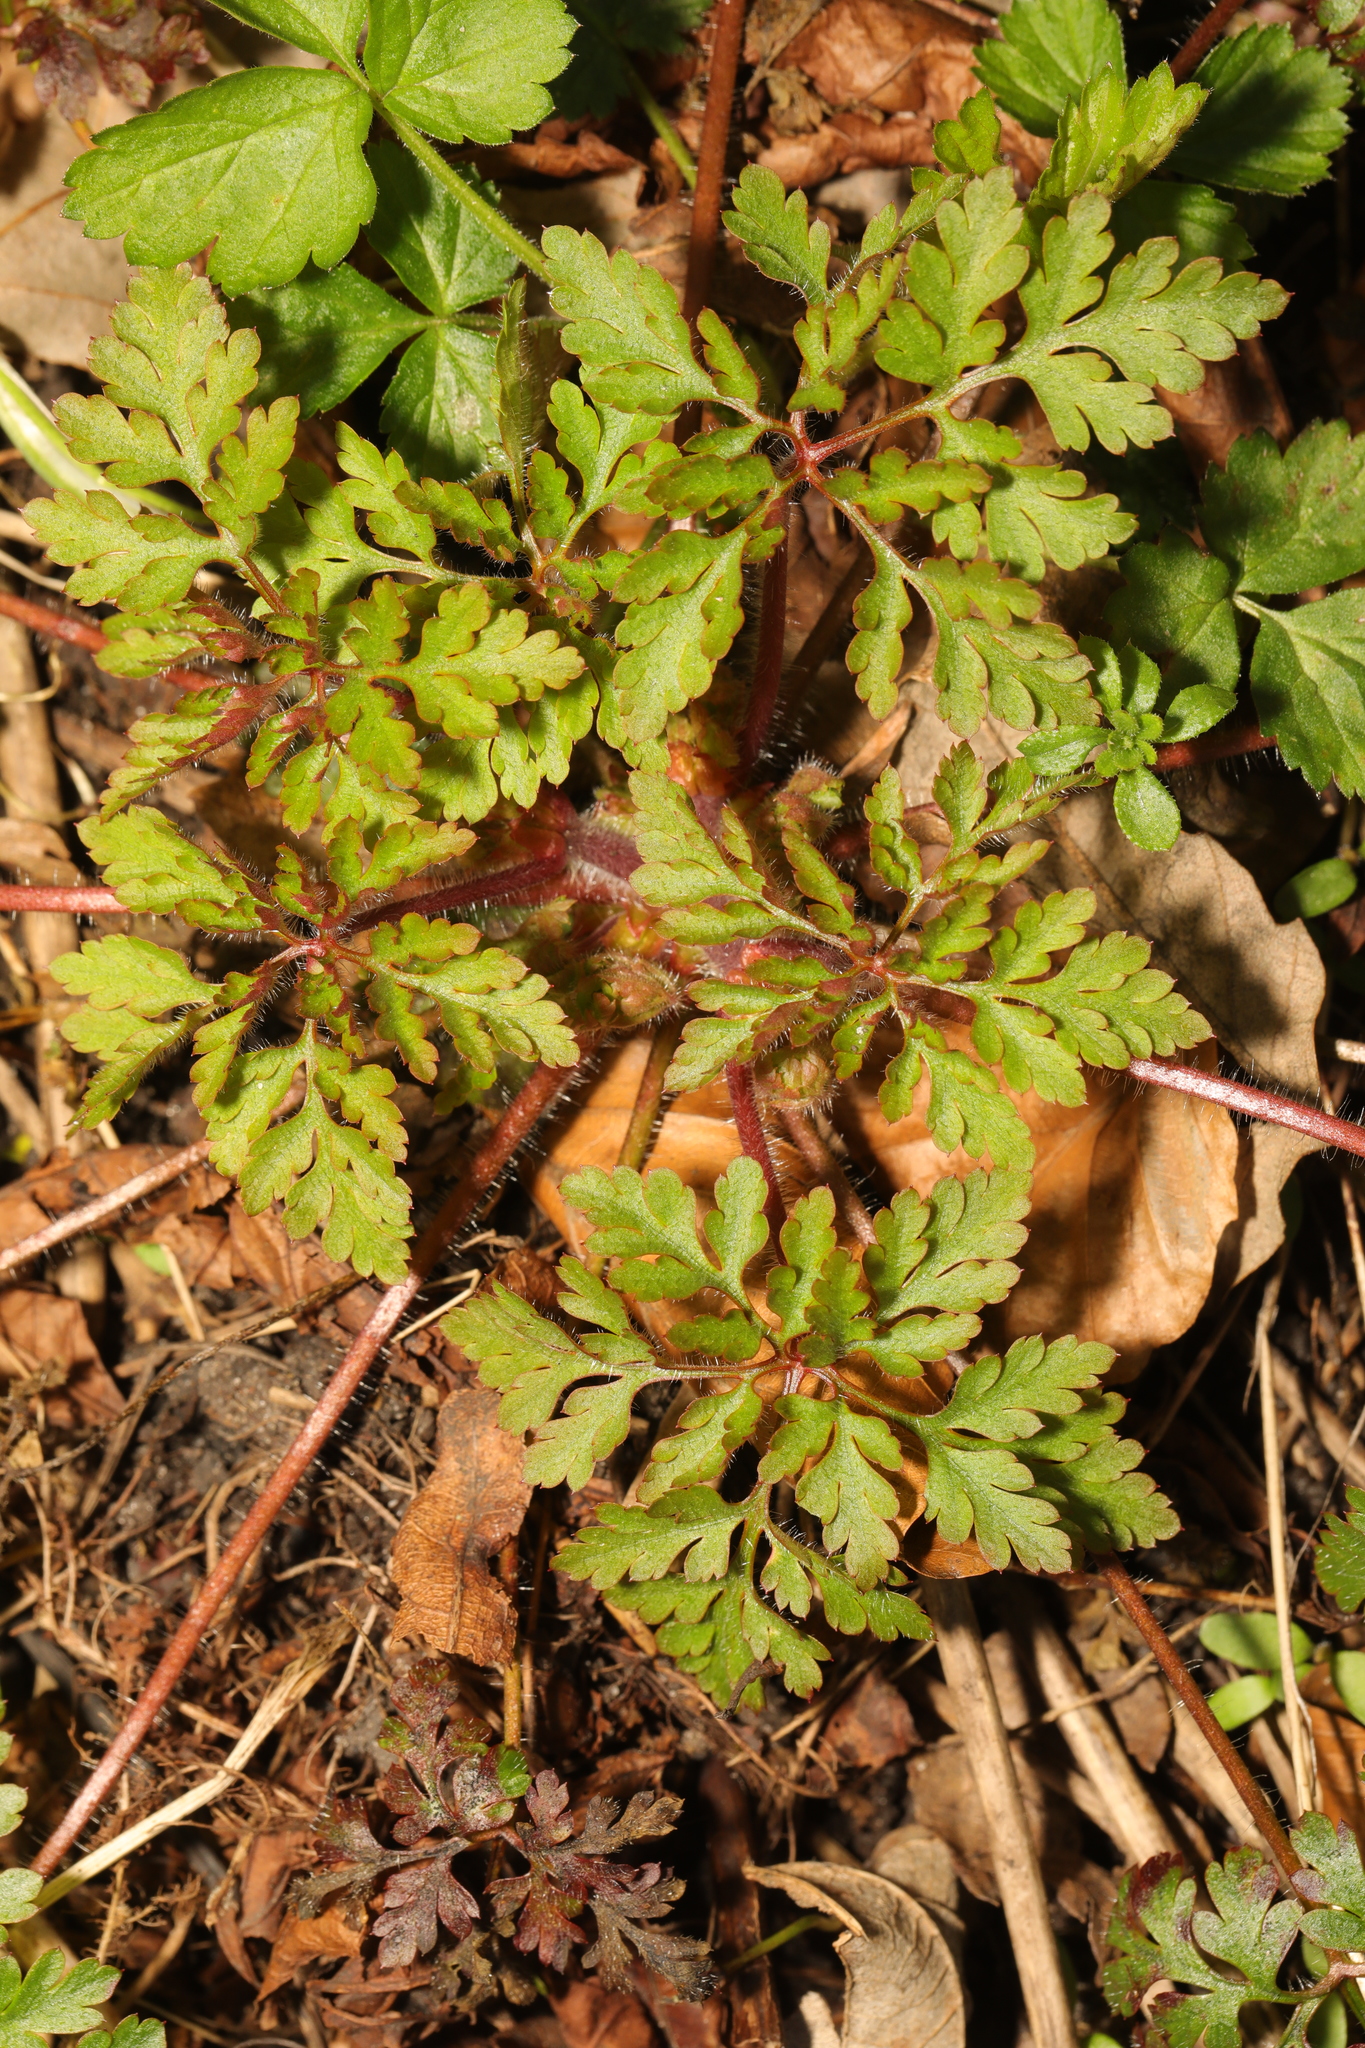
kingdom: Plantae
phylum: Tracheophyta
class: Magnoliopsida
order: Geraniales
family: Geraniaceae
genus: Geranium
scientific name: Geranium robertianum
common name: Herb-robert
